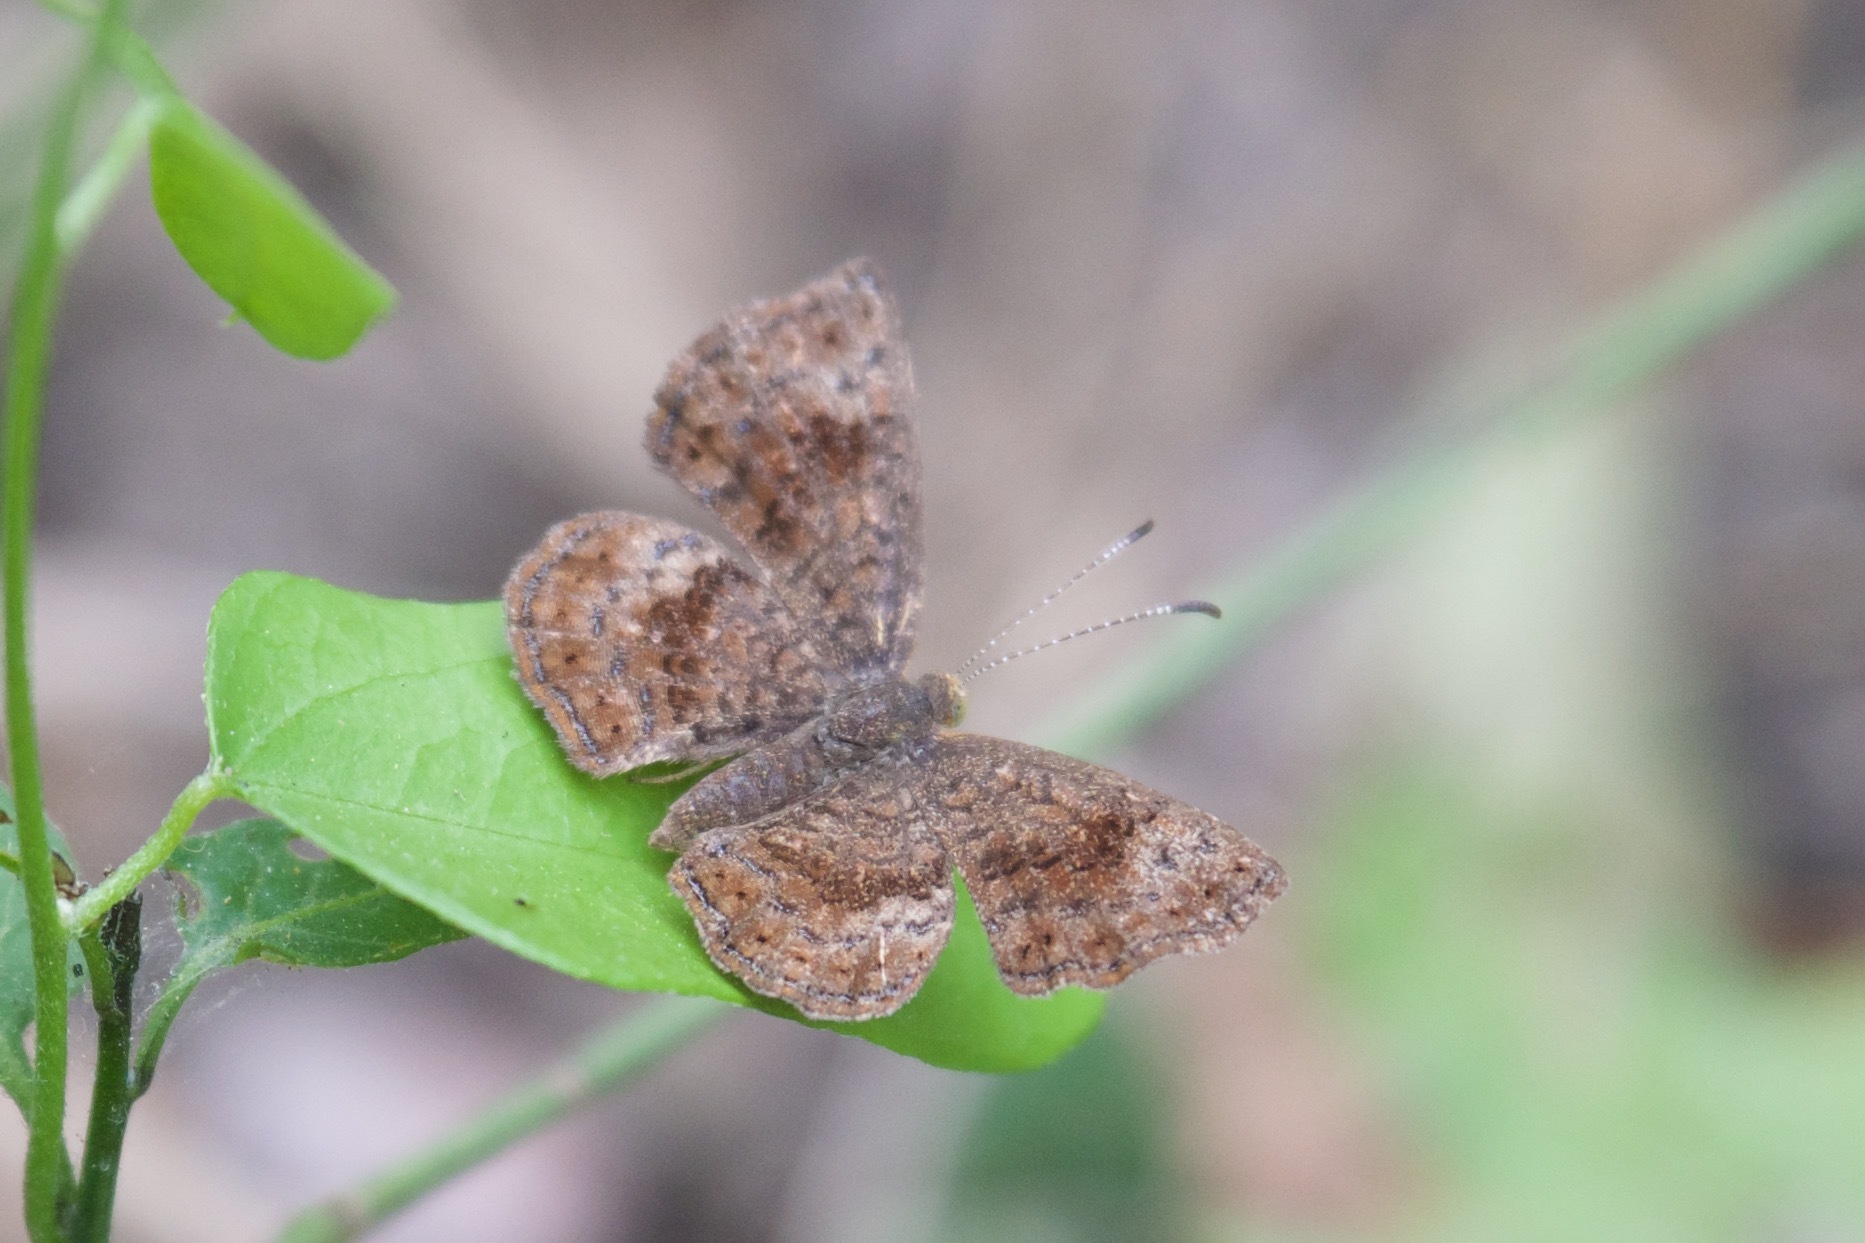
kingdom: Animalia
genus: Calephelis
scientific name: Calephelis nemesis
